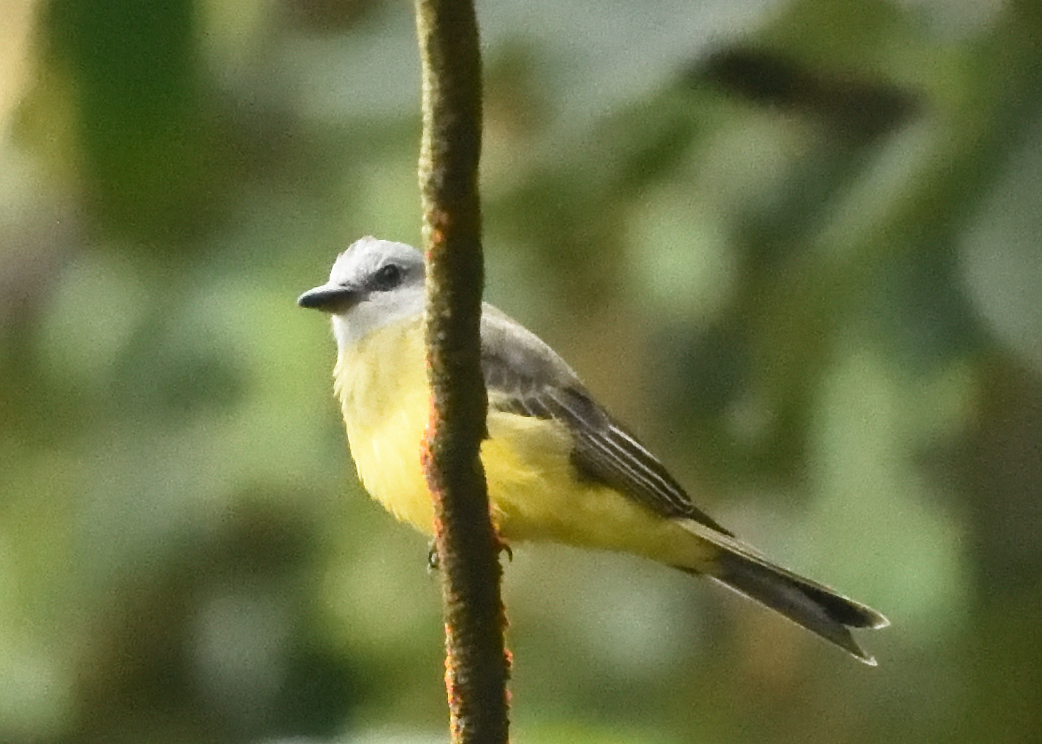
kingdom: Animalia
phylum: Chordata
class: Aves
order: Passeriformes
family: Tyrannidae
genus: Tyrannus
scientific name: Tyrannus melancholicus
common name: Tropical kingbird
